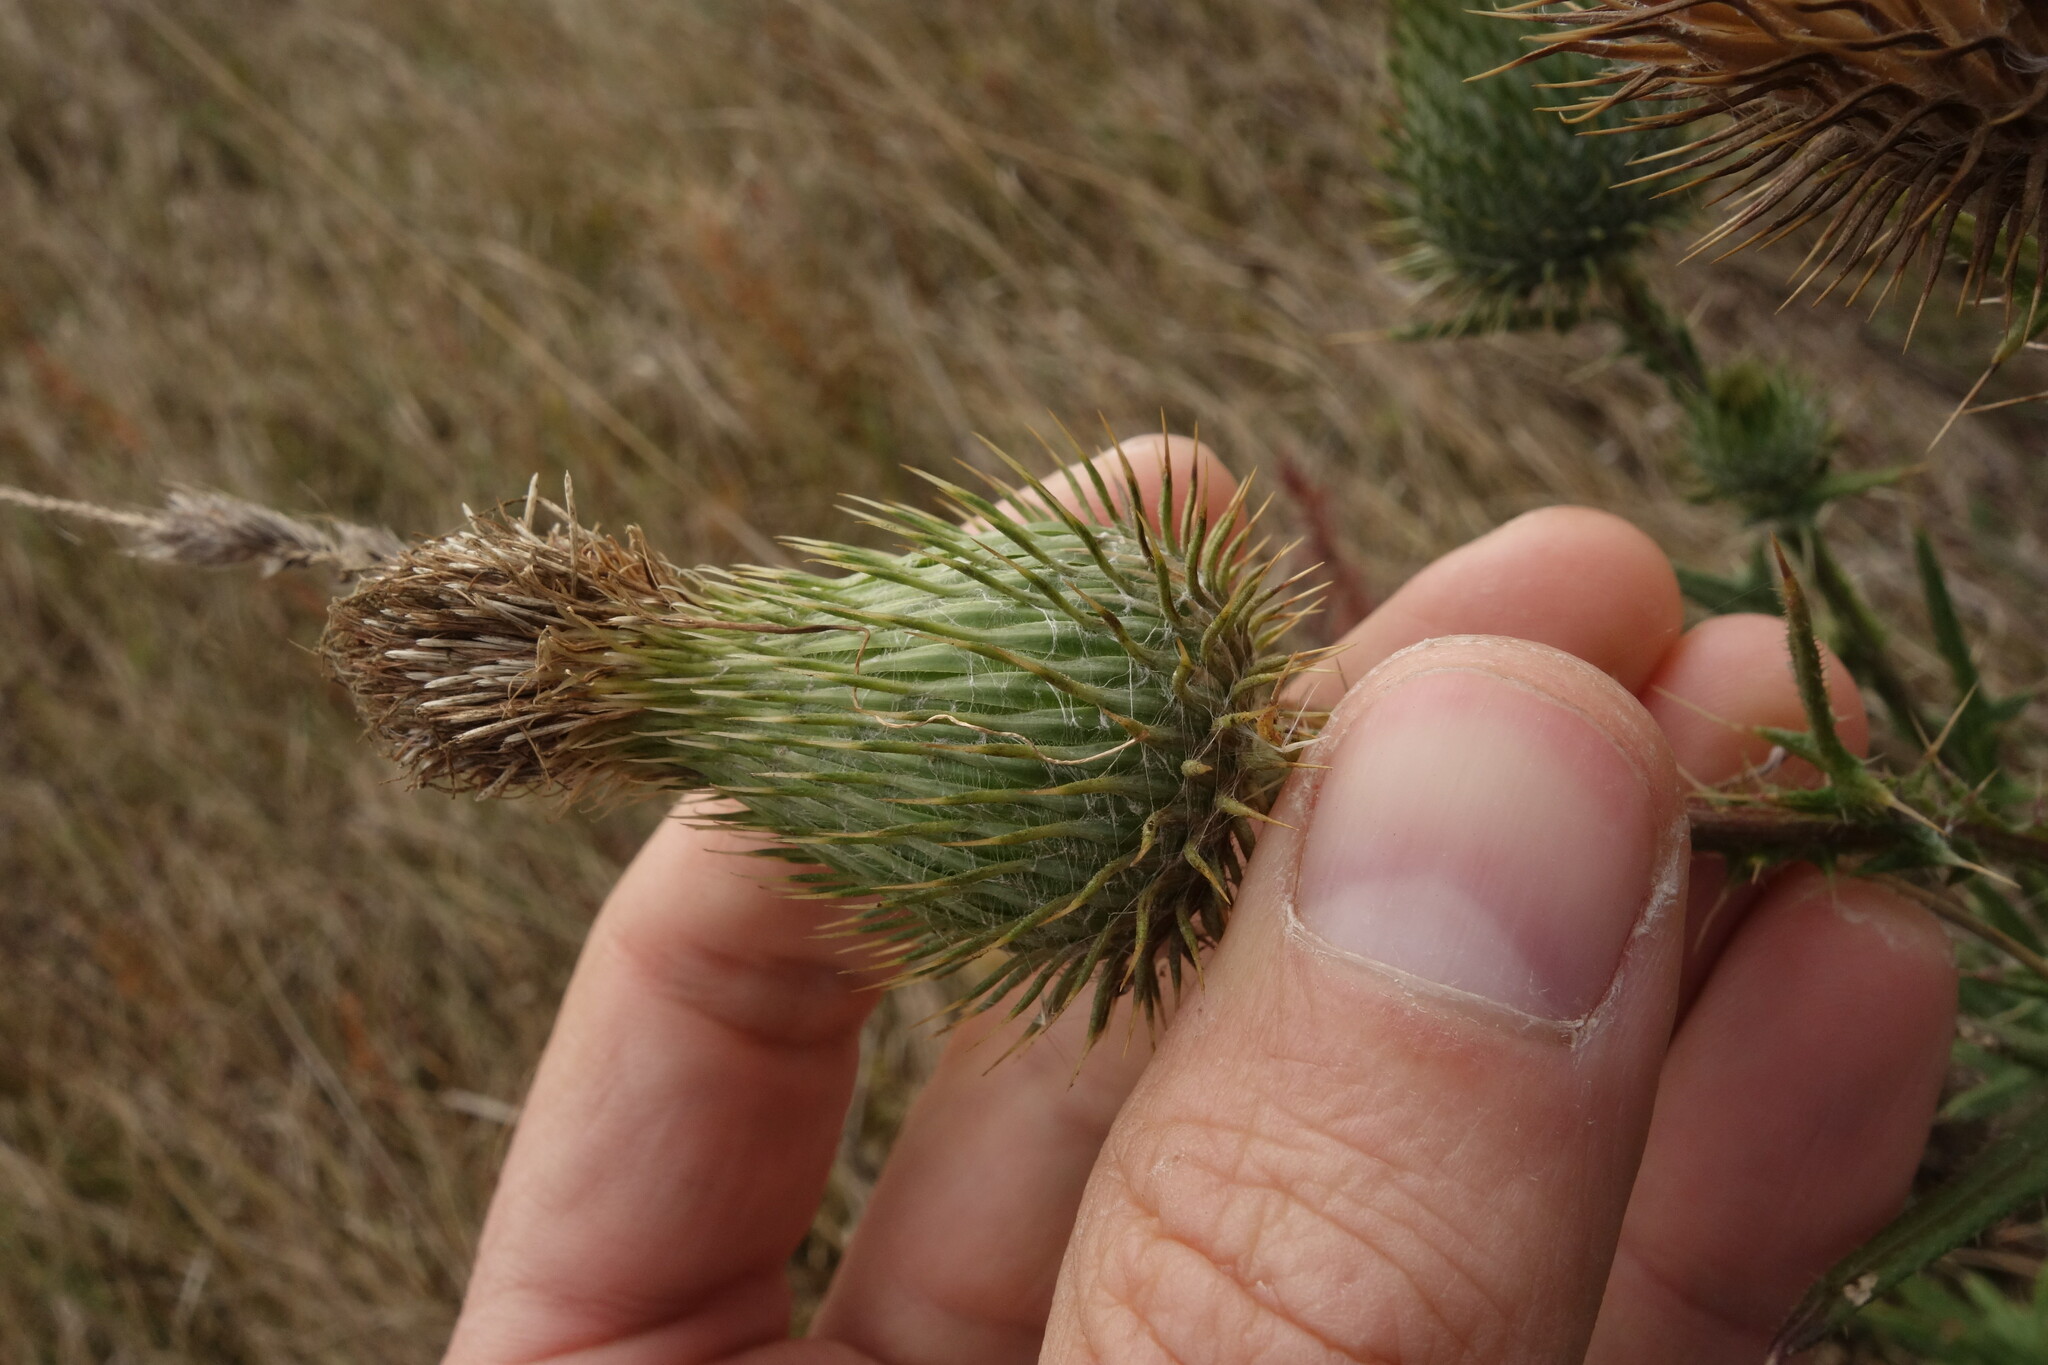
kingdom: Plantae
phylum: Tracheophyta
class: Magnoliopsida
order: Asterales
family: Asteraceae
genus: Cirsium
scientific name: Cirsium vulgare
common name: Bull thistle
